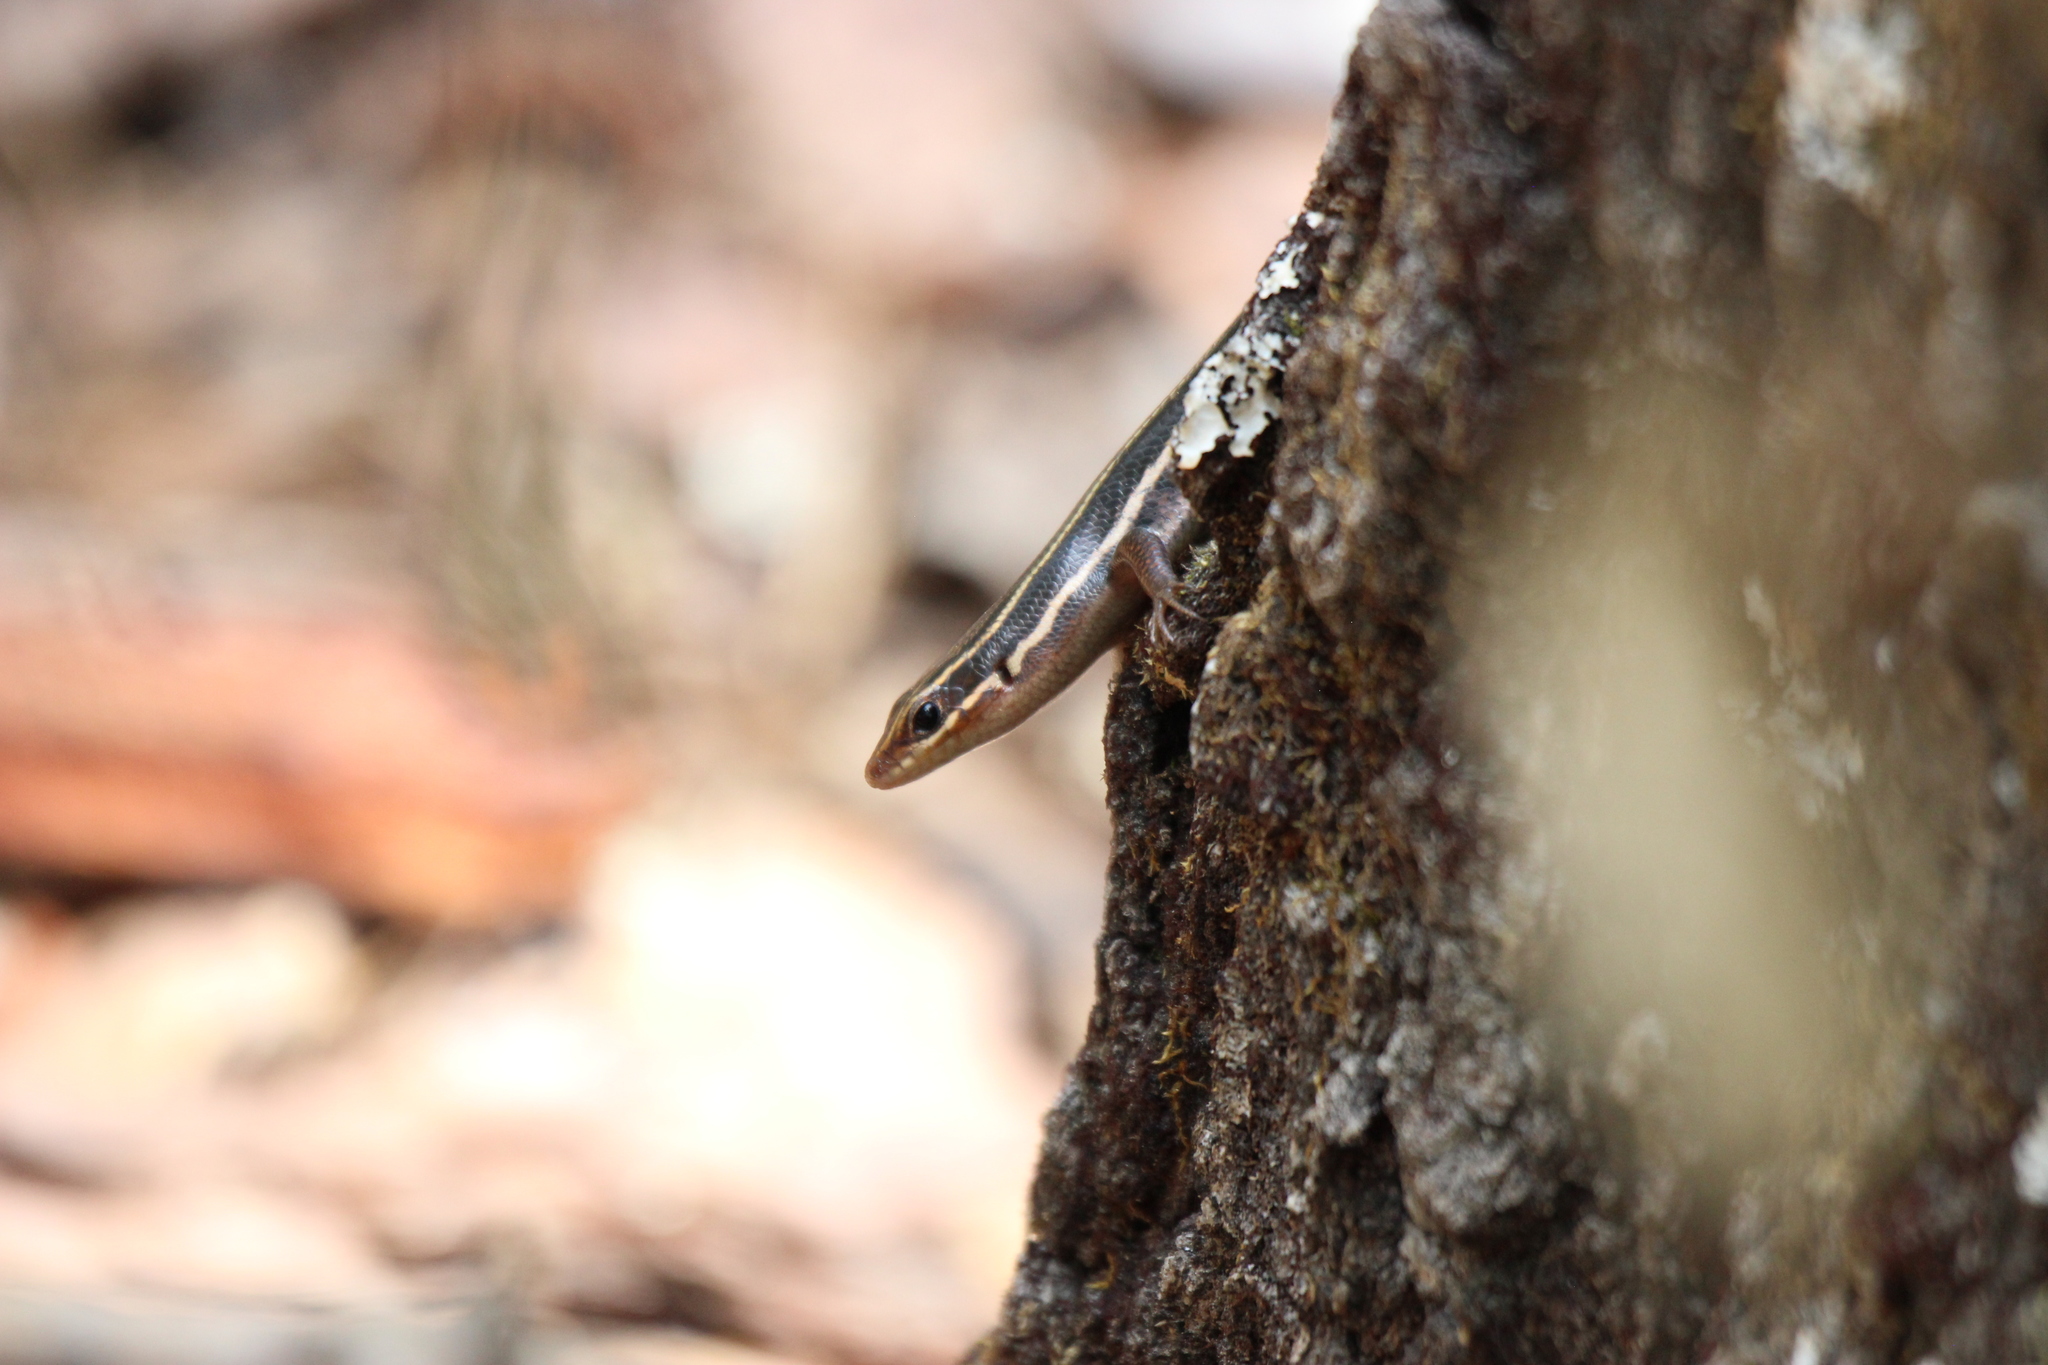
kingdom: Animalia
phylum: Chordata
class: Squamata
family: Scincidae
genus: Plestiodon
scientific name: Plestiodon inexpectatus
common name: Southeastern five-lined skink
